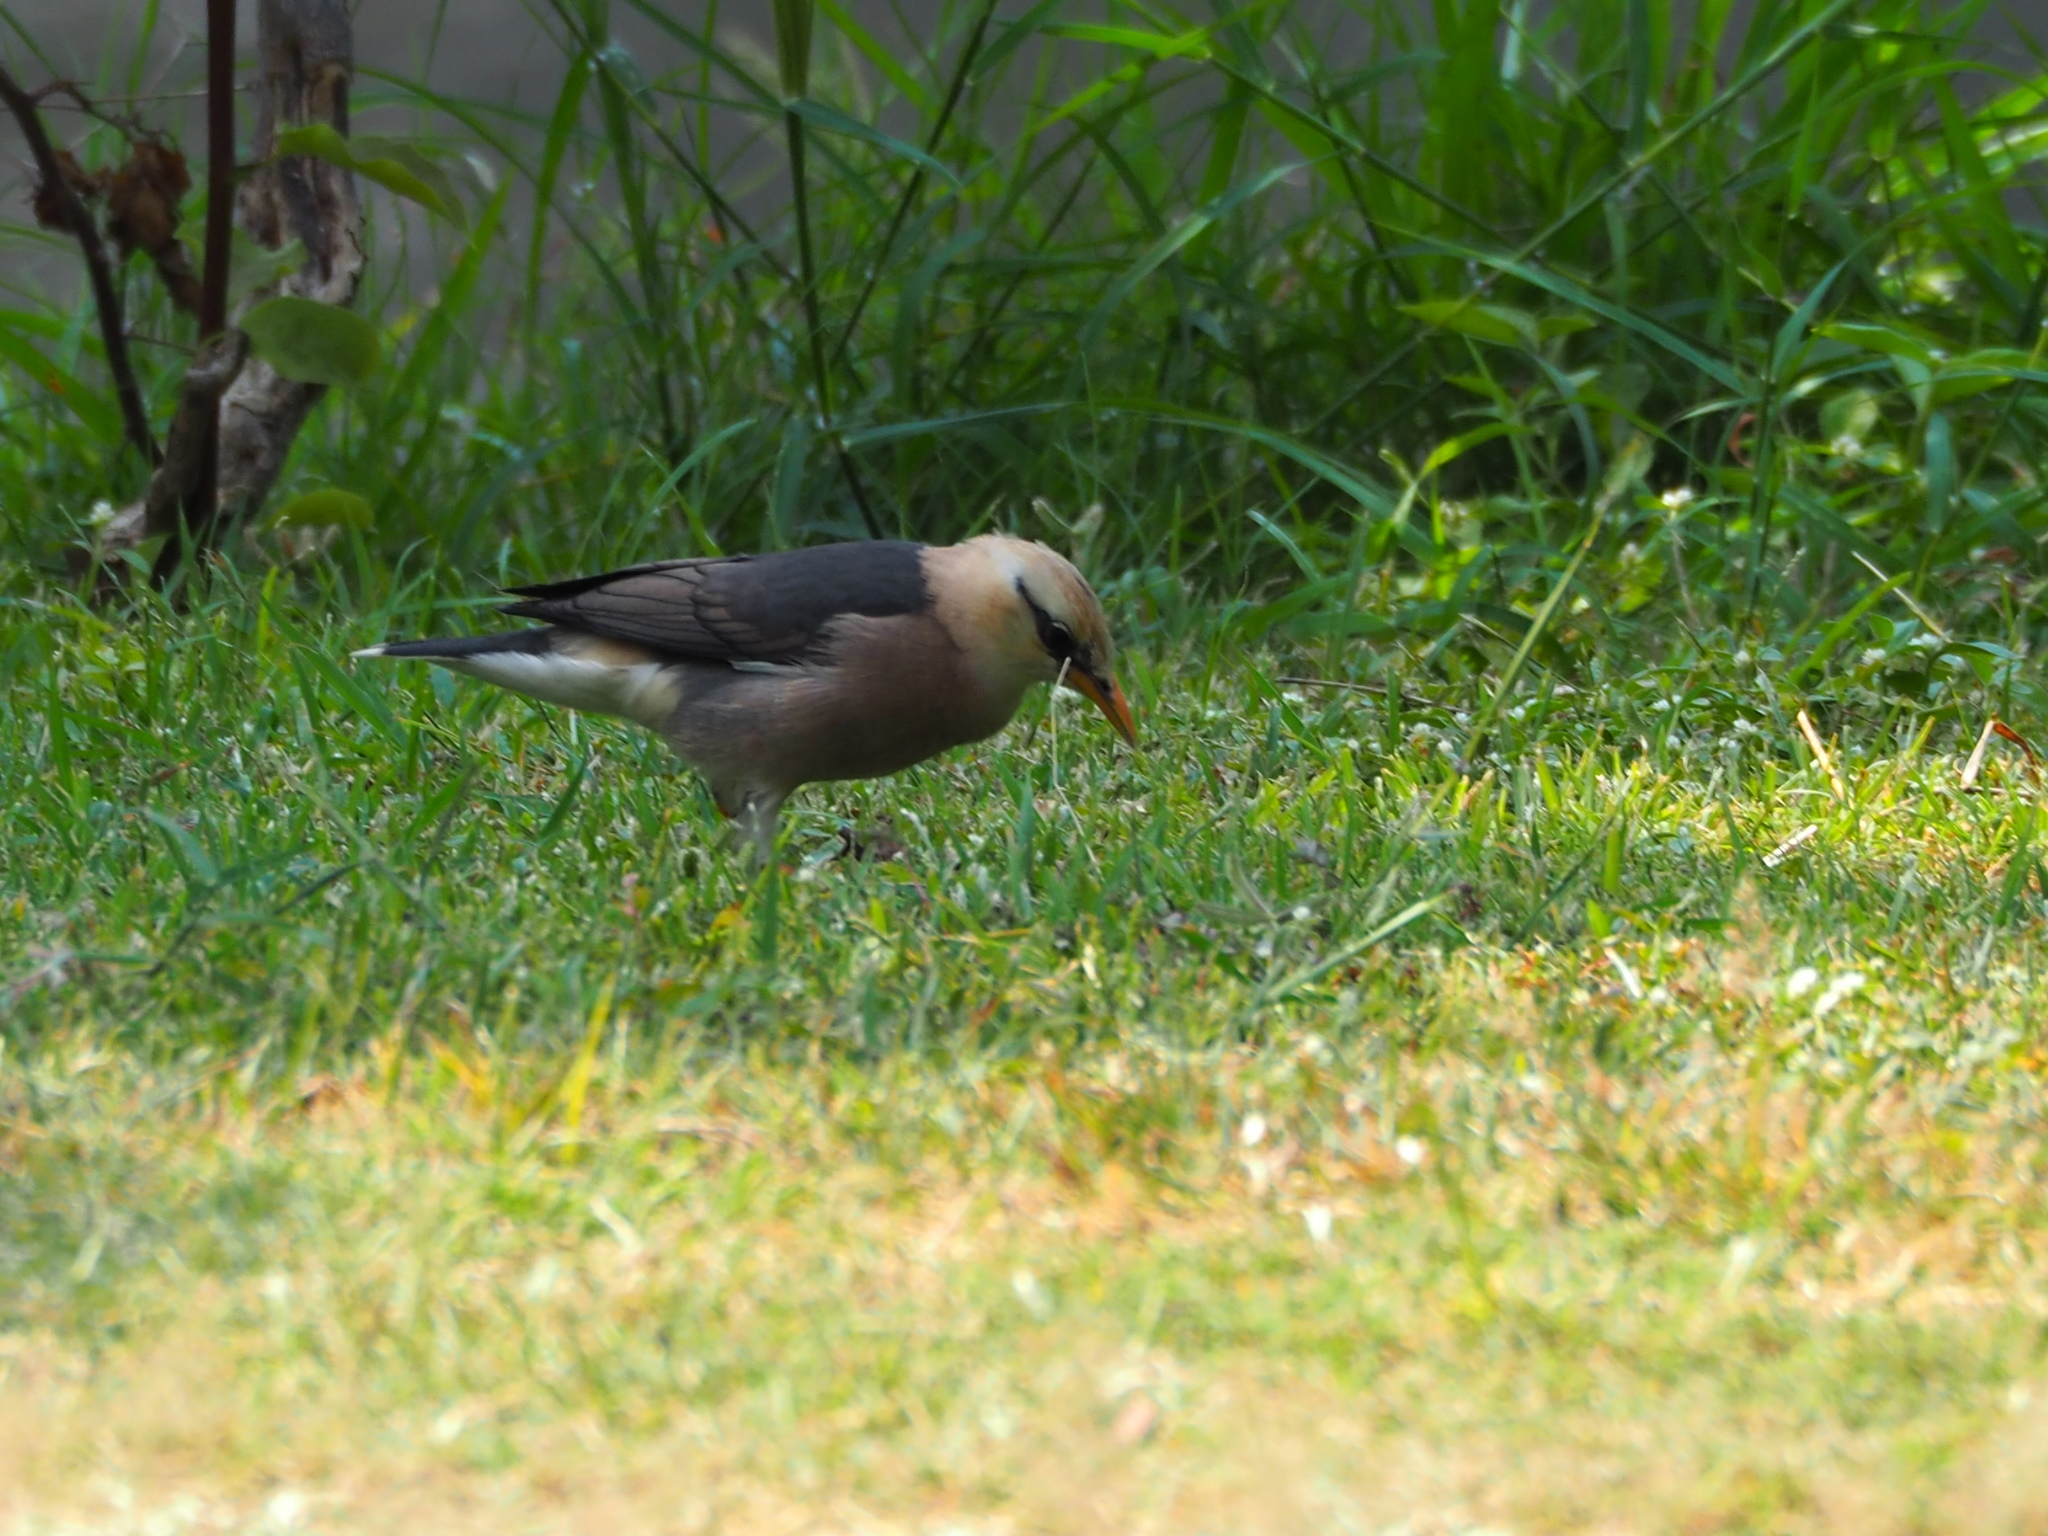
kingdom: Animalia
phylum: Chordata
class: Aves
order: Passeriformes
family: Sturnidae
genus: Acridotheres
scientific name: Acridotheres leucocephalus
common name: Vinous-breasted myna
